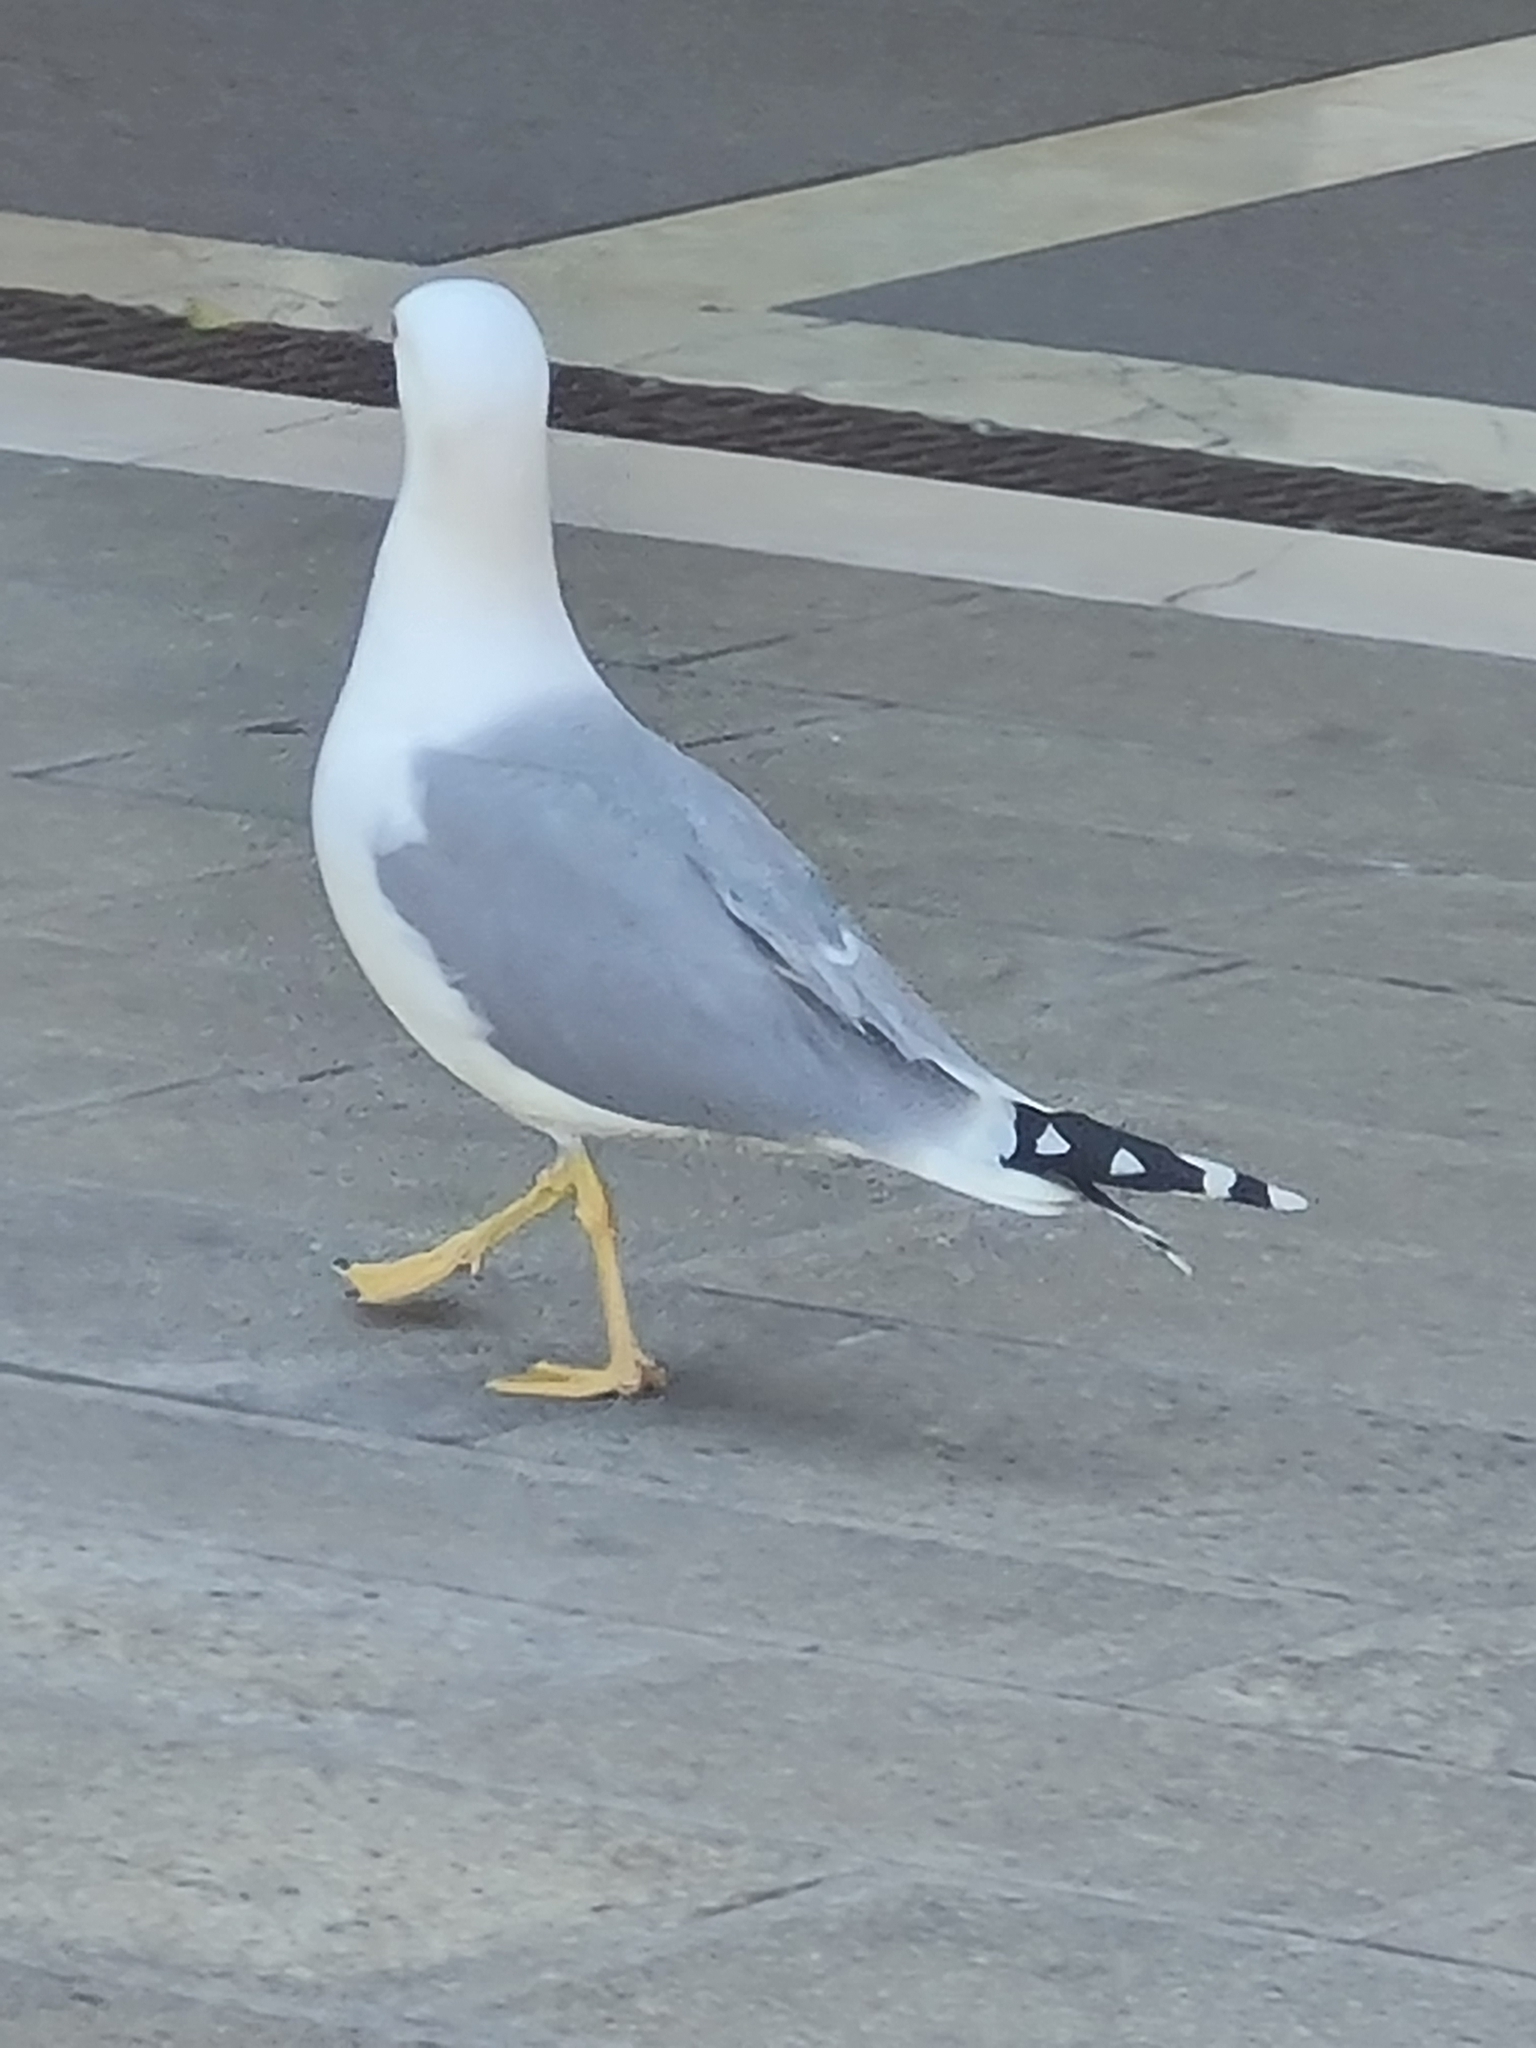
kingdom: Animalia
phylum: Chordata
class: Aves
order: Charadriiformes
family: Laridae
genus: Larus
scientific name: Larus michahellis
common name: Yellow-legged gull
